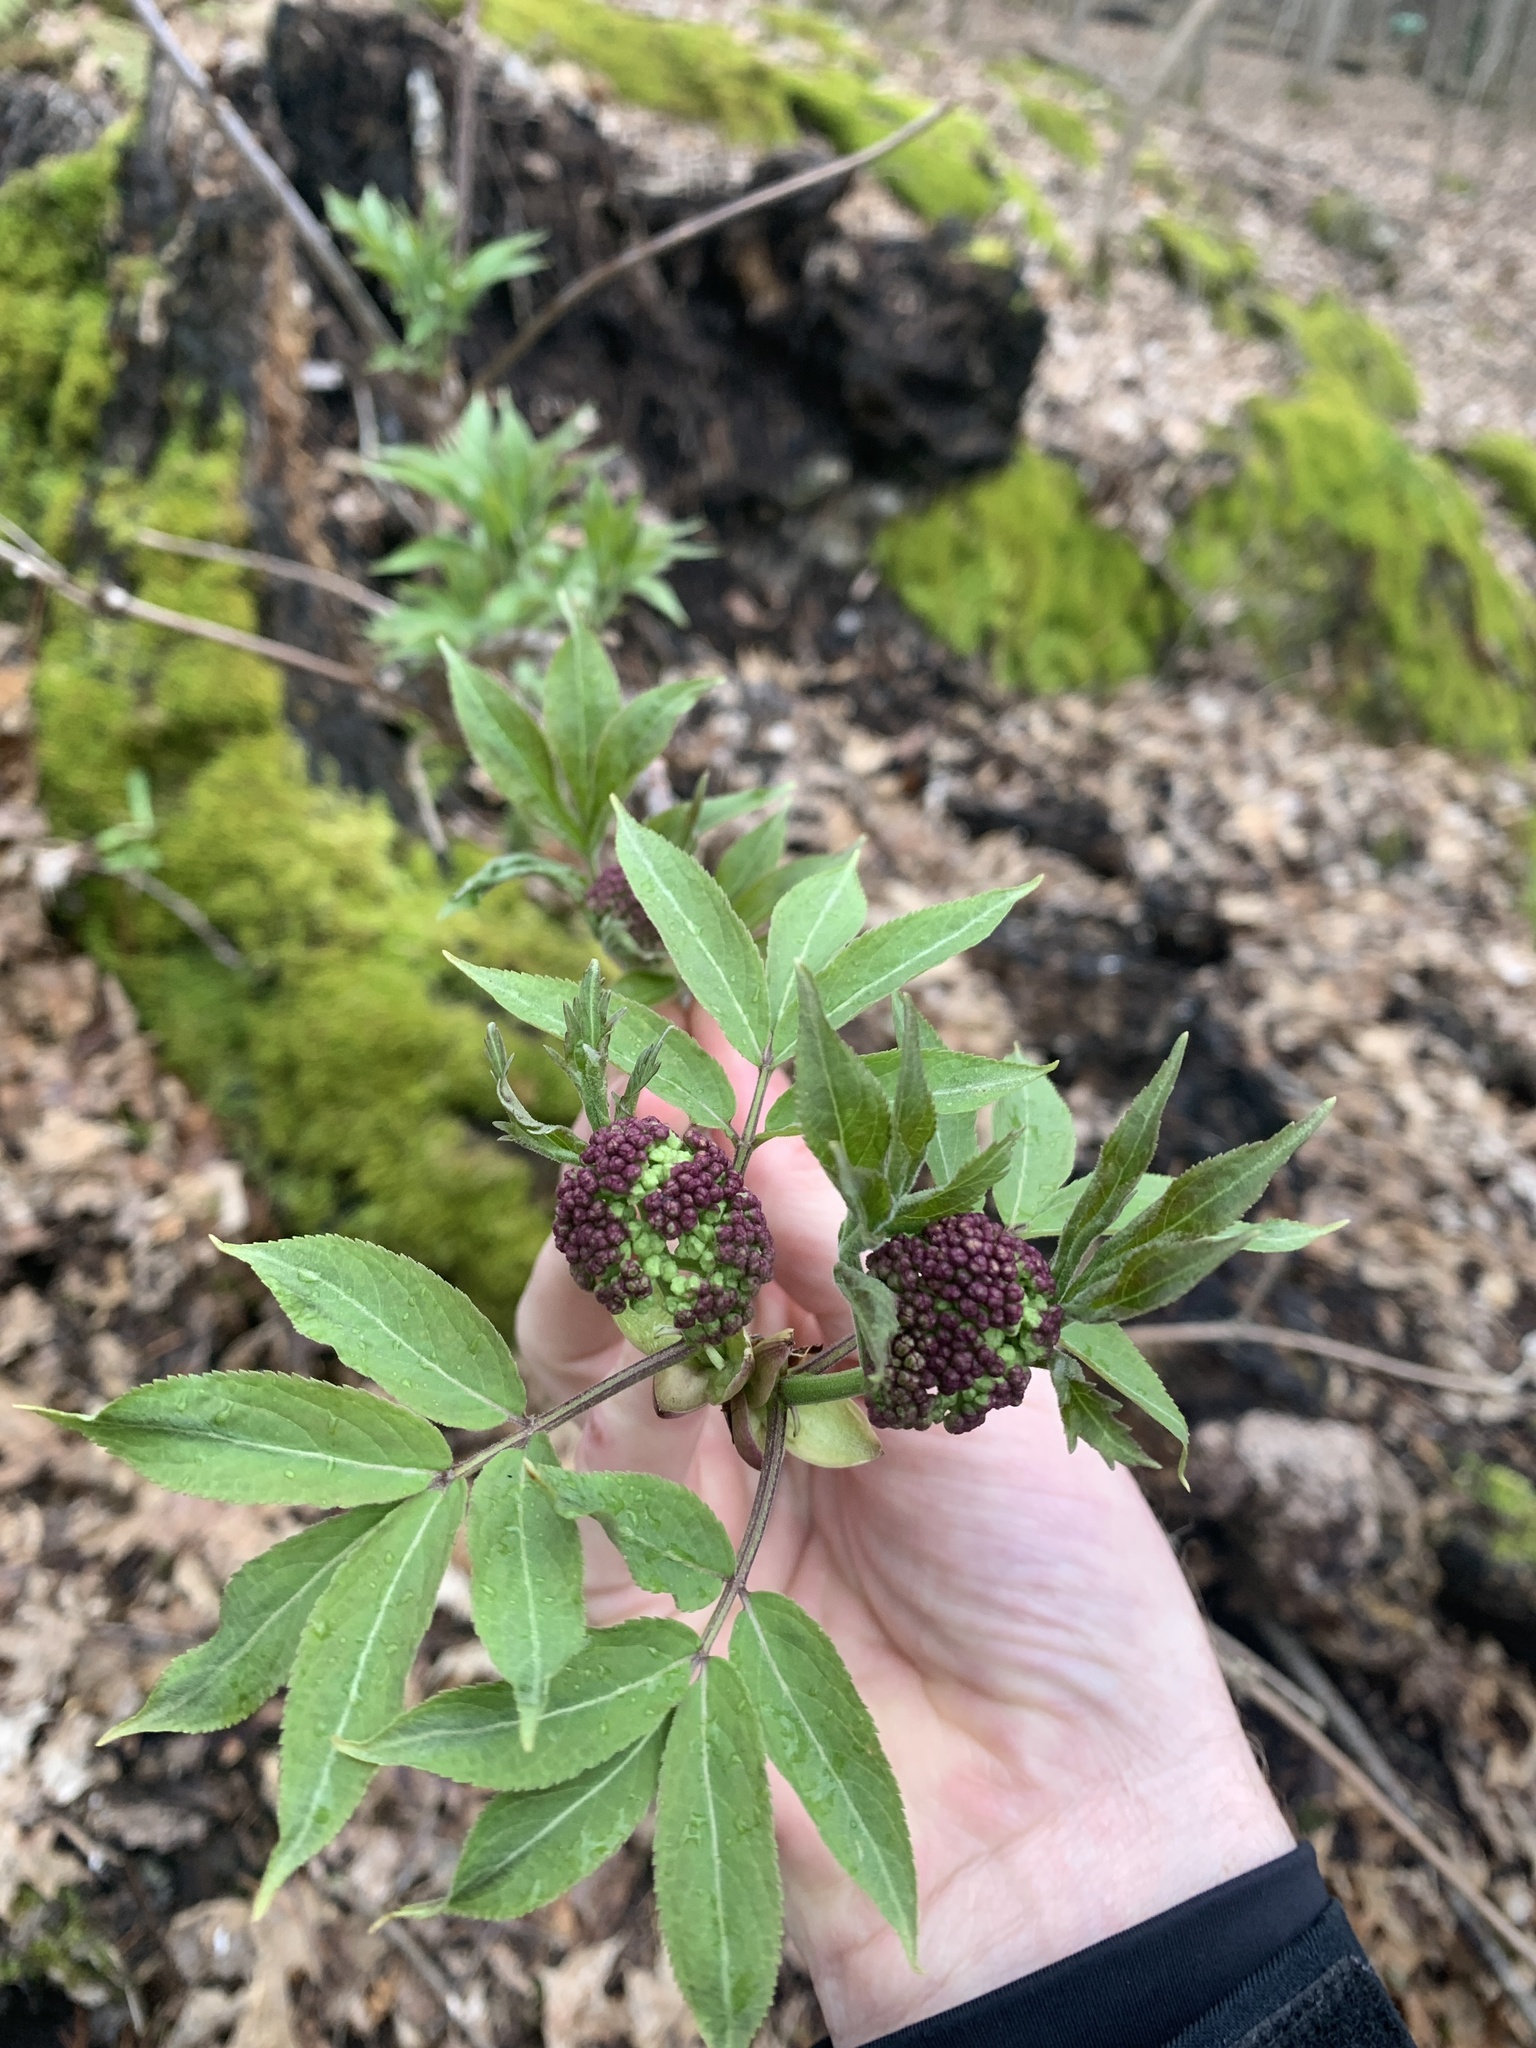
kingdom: Plantae
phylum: Tracheophyta
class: Magnoliopsida
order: Dipsacales
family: Viburnaceae
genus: Sambucus
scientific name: Sambucus racemosa
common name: Red-berried elder
